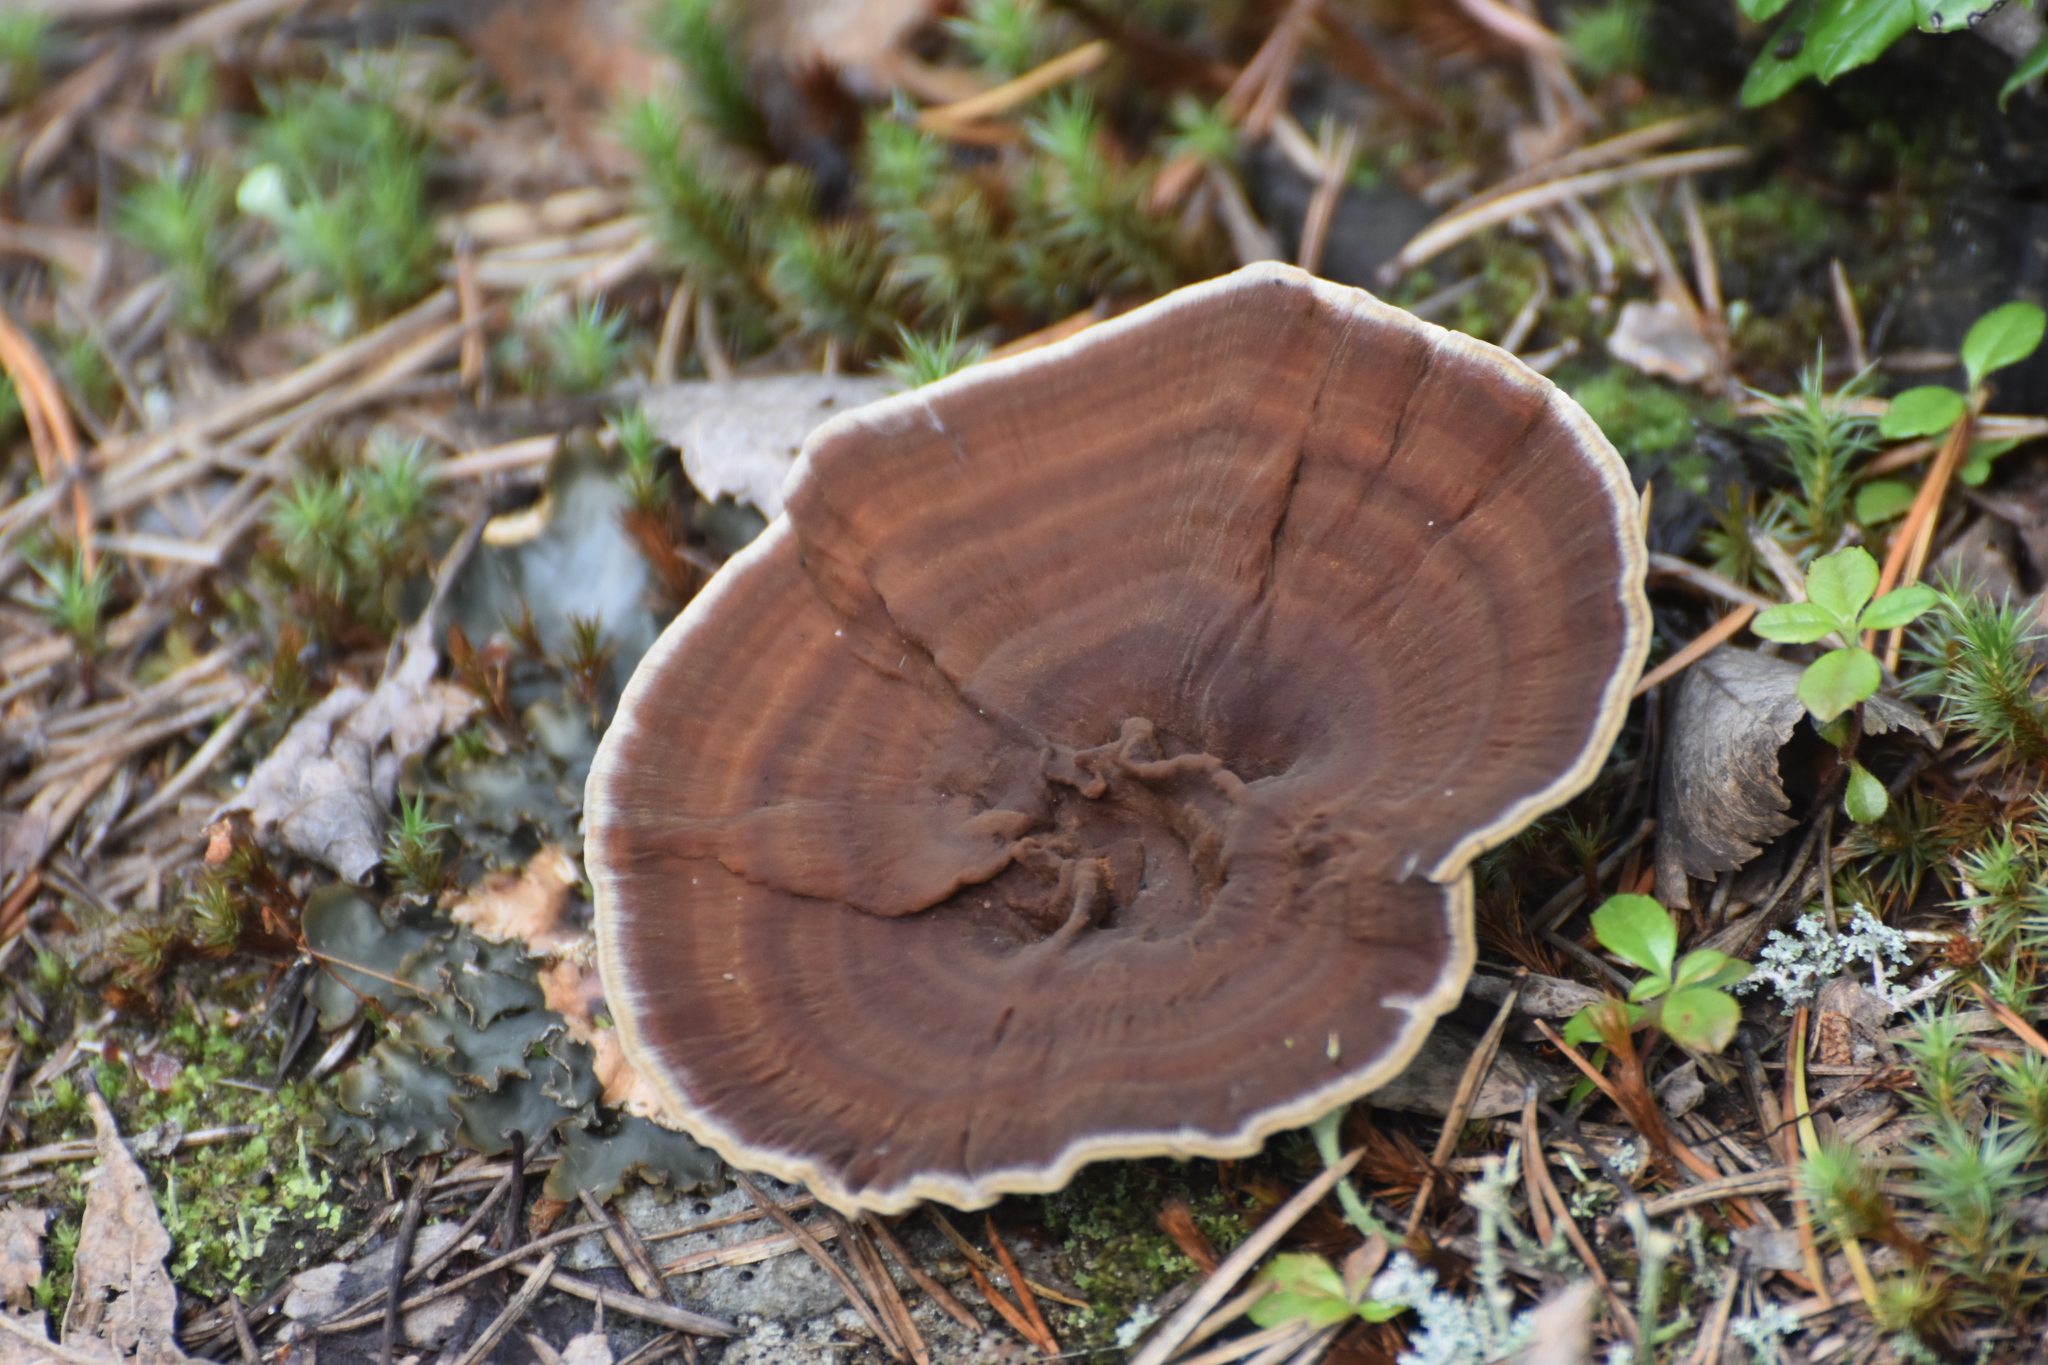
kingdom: Fungi
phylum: Basidiomycota
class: Agaricomycetes
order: Hymenochaetales
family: Hymenochaetaceae
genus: Coltricia
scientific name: Coltricia perennis
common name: Tiger's eye
